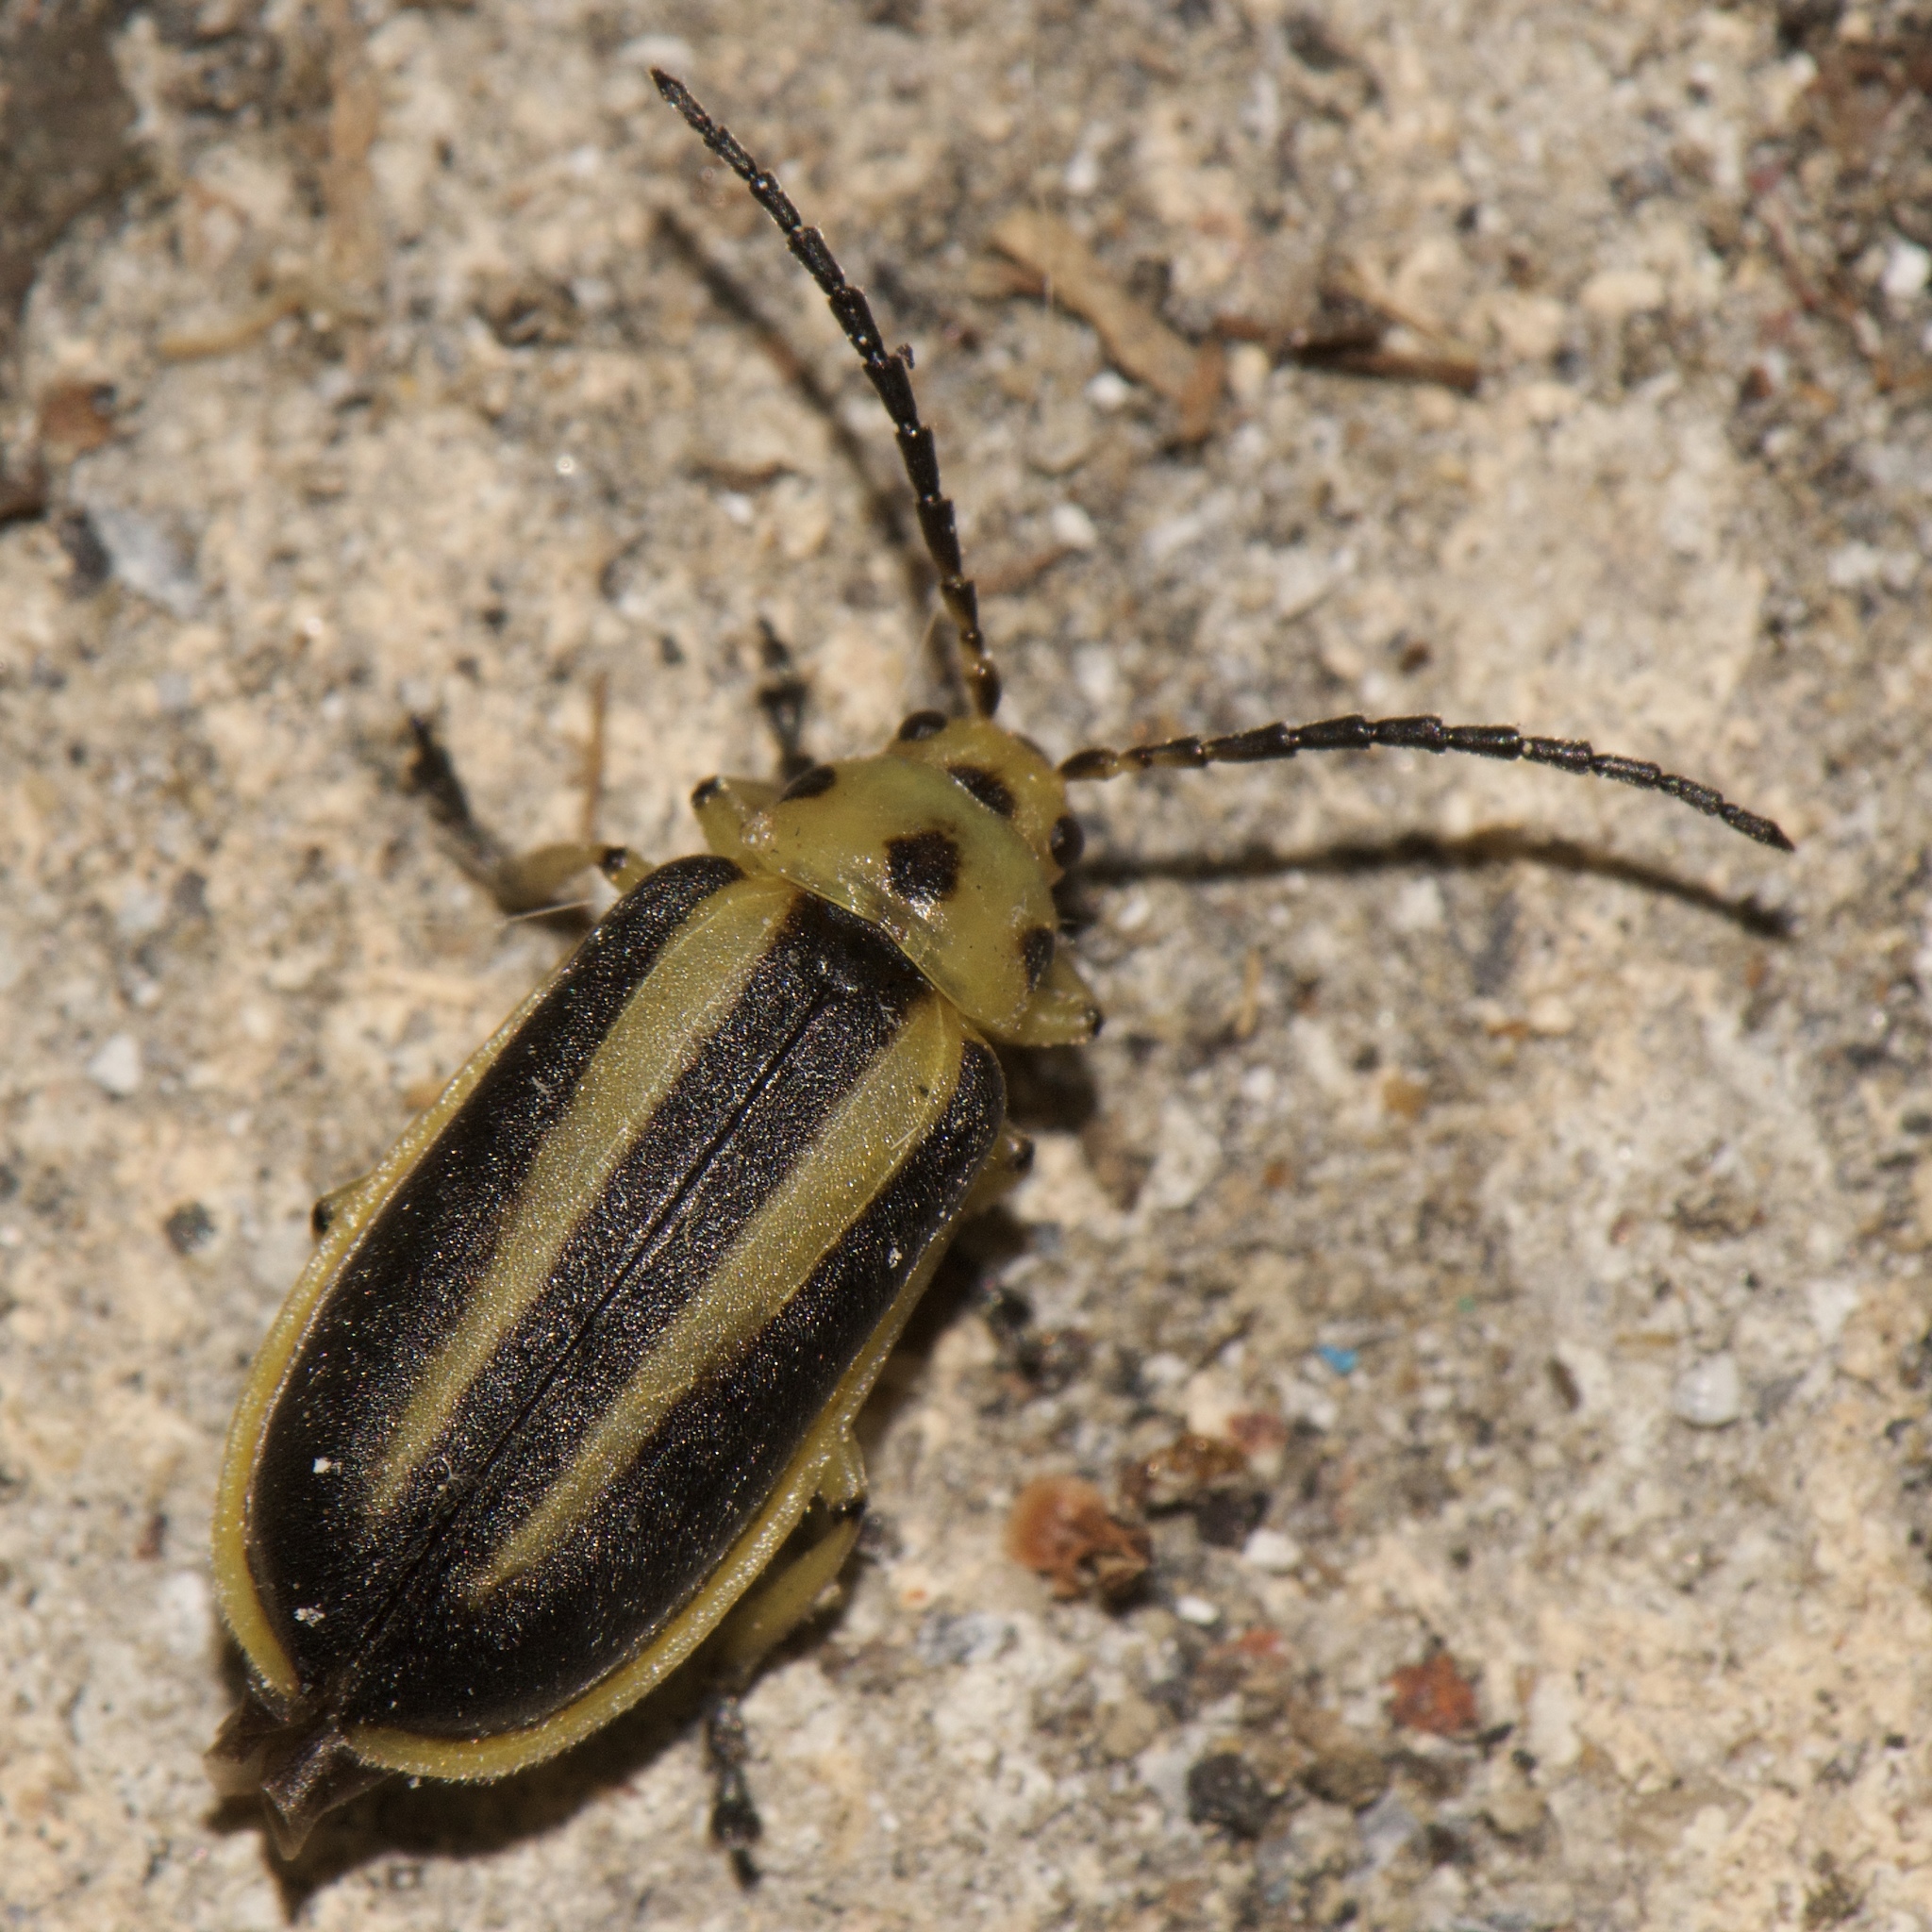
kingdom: Animalia
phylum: Arthropoda
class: Insecta
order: Coleoptera
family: Chrysomelidae
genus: Trirhabda
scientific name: Trirhabda bacharidis
